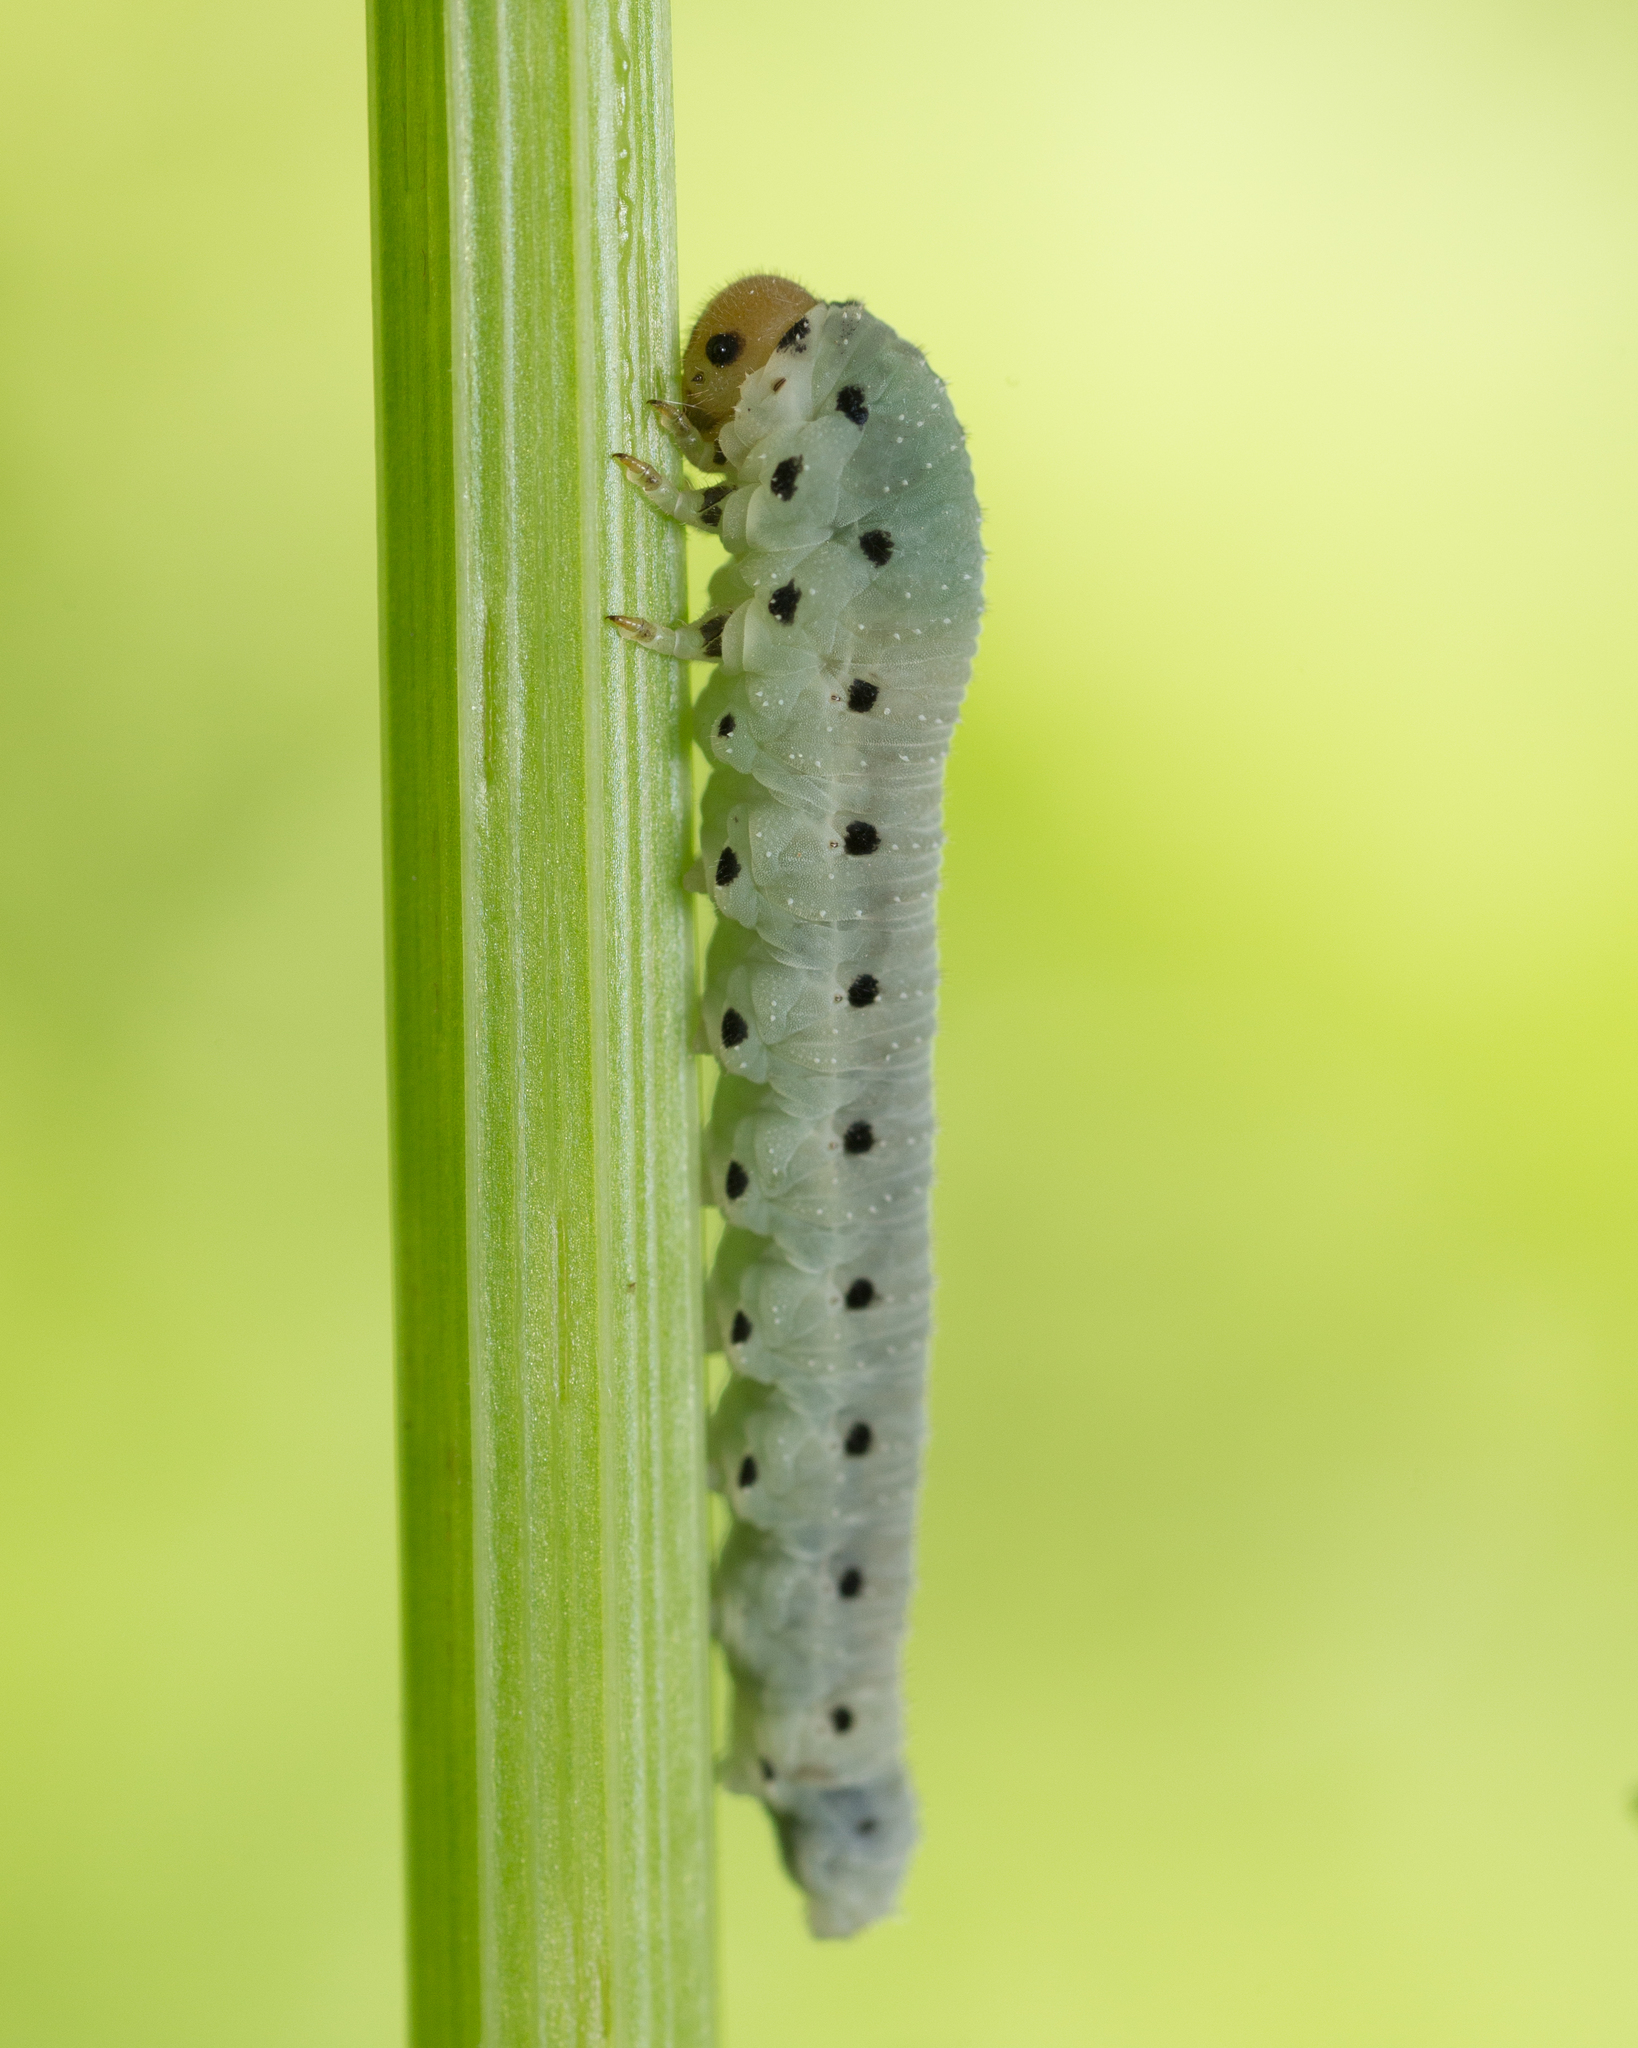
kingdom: Animalia
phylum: Arthropoda
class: Insecta
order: Hymenoptera
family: Tenthredinidae
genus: Sciapteryx
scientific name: Sciapteryx costalis
